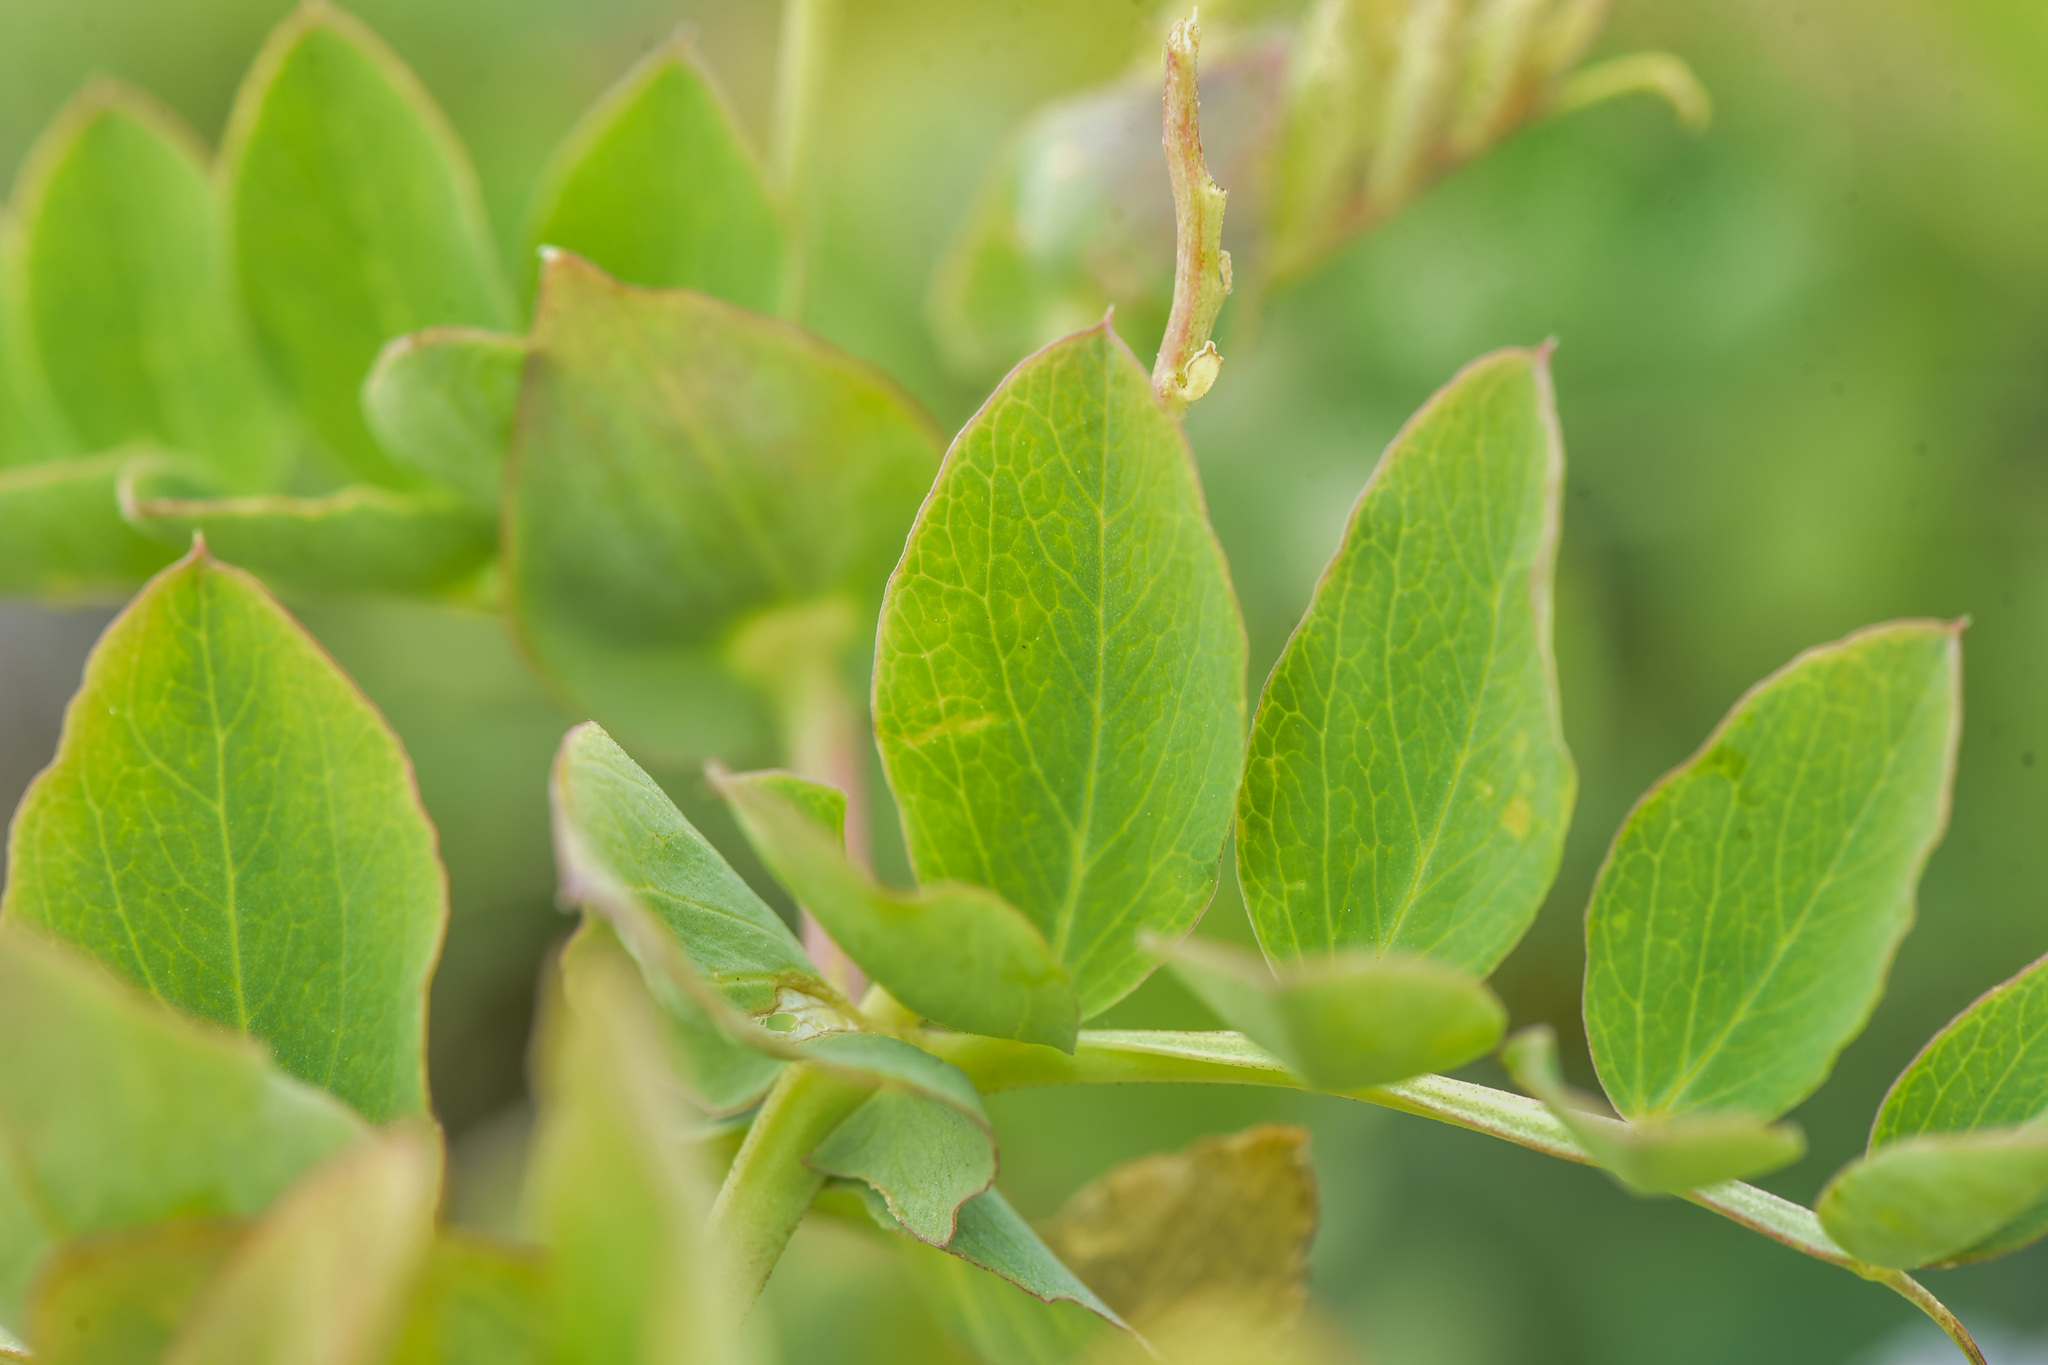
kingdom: Plantae
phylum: Tracheophyta
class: Magnoliopsida
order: Fabales
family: Fabaceae
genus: Lathyrus
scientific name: Lathyrus japonicus
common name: Sea pea
